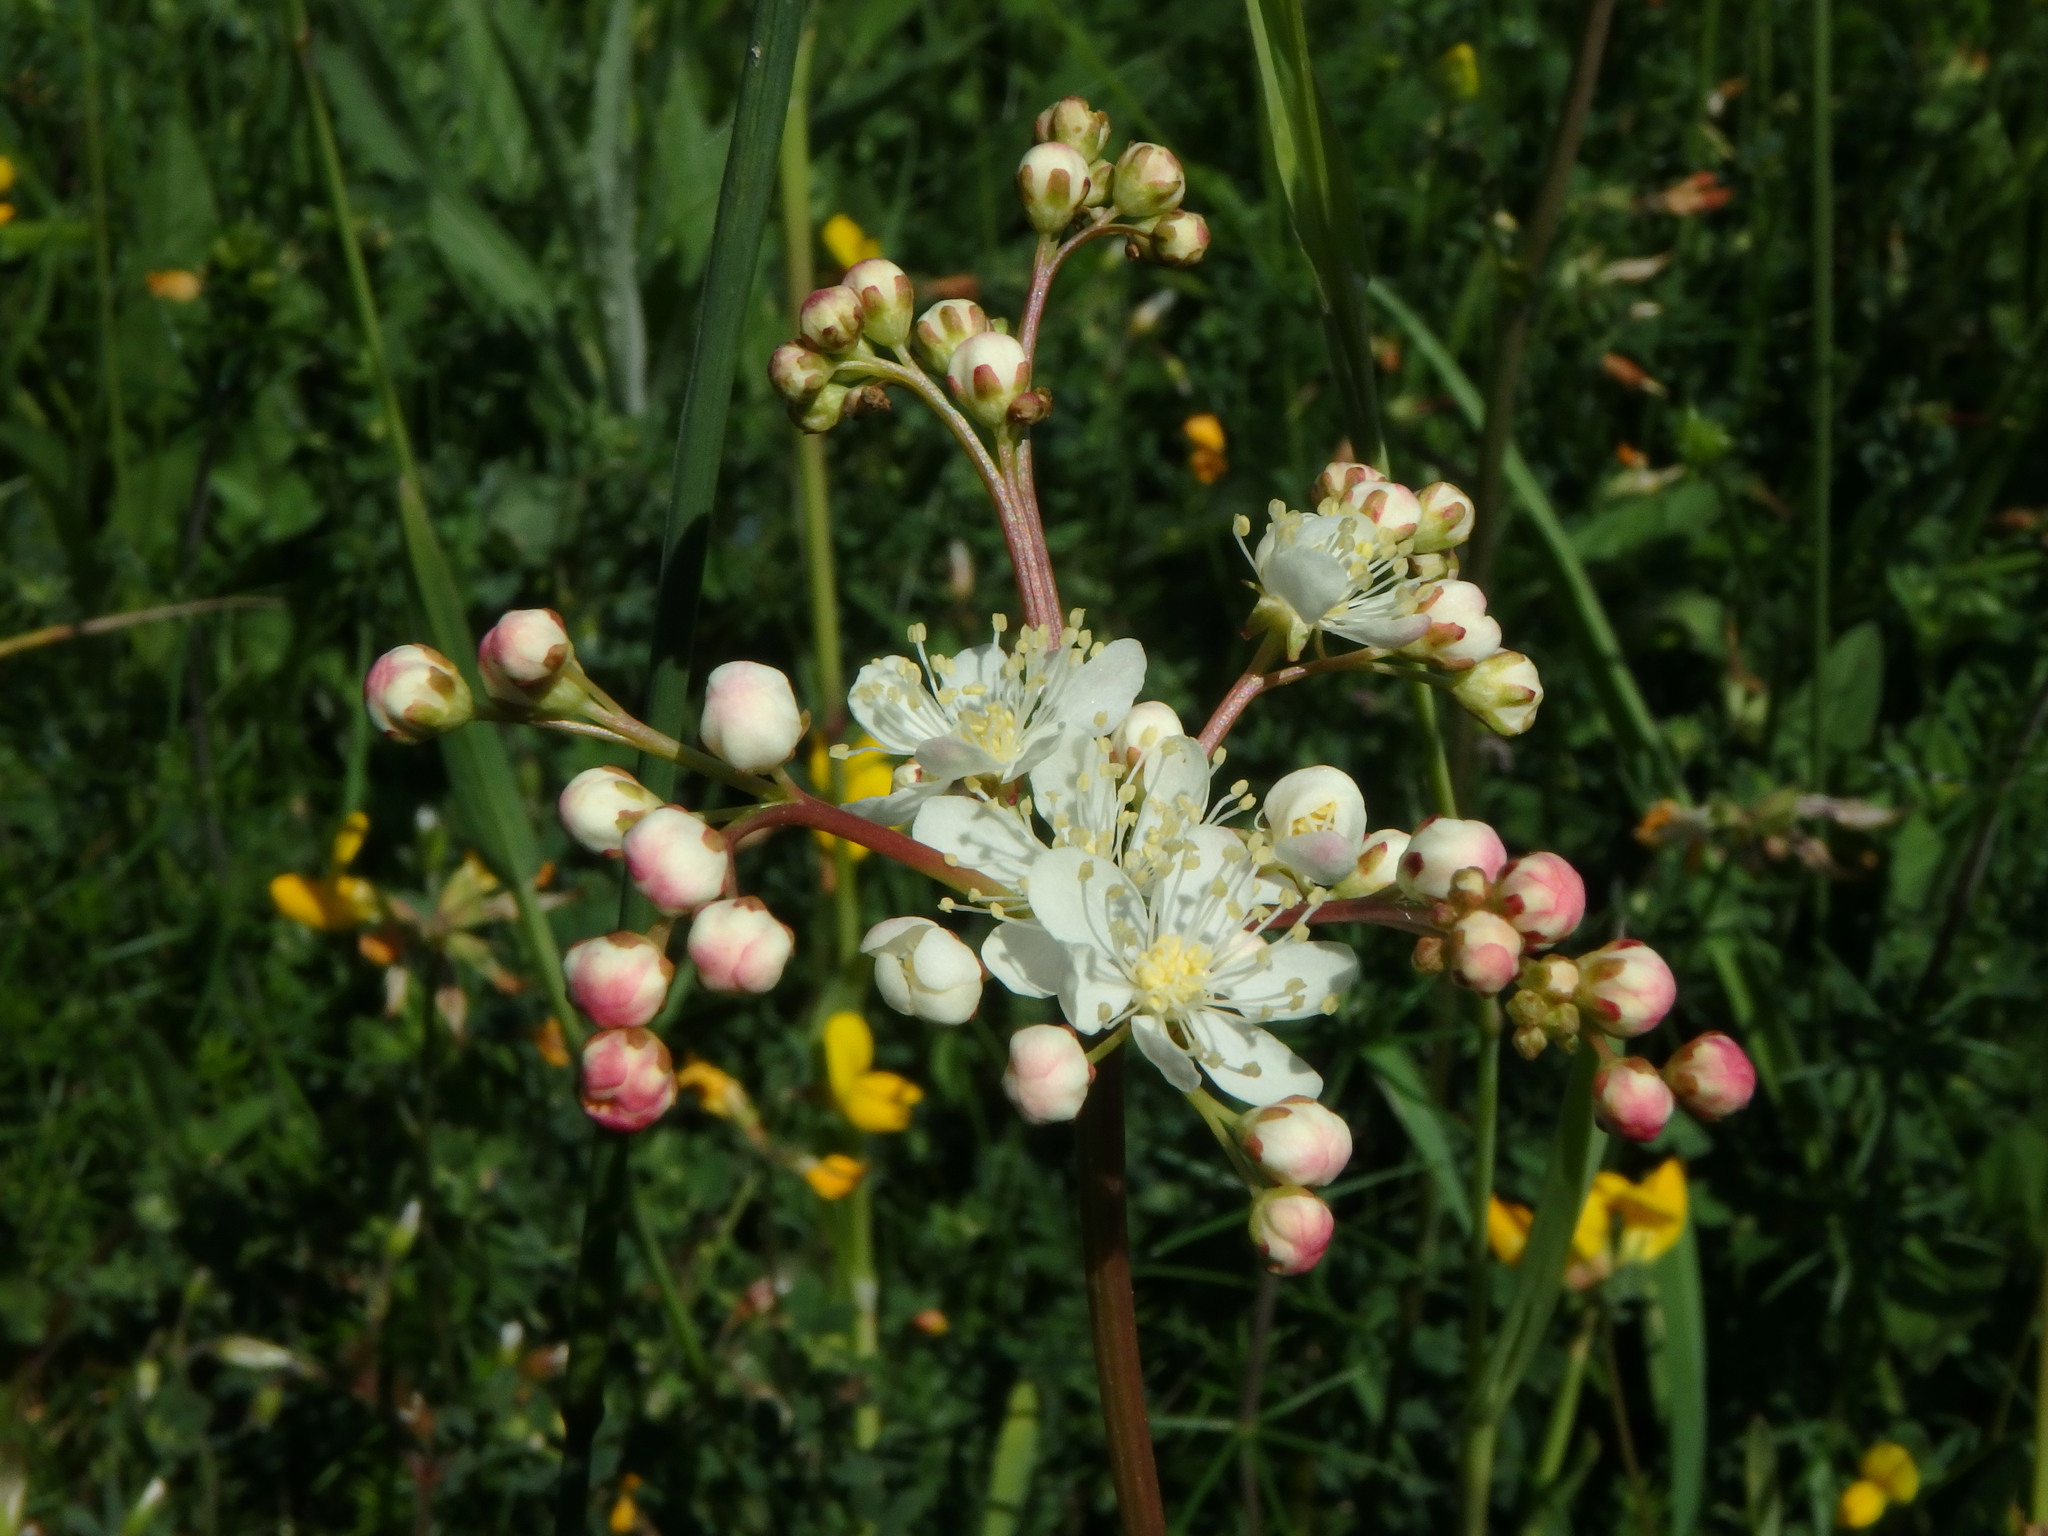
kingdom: Plantae
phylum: Tracheophyta
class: Magnoliopsida
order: Rosales
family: Rosaceae
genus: Filipendula
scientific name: Filipendula vulgaris
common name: Dropwort
